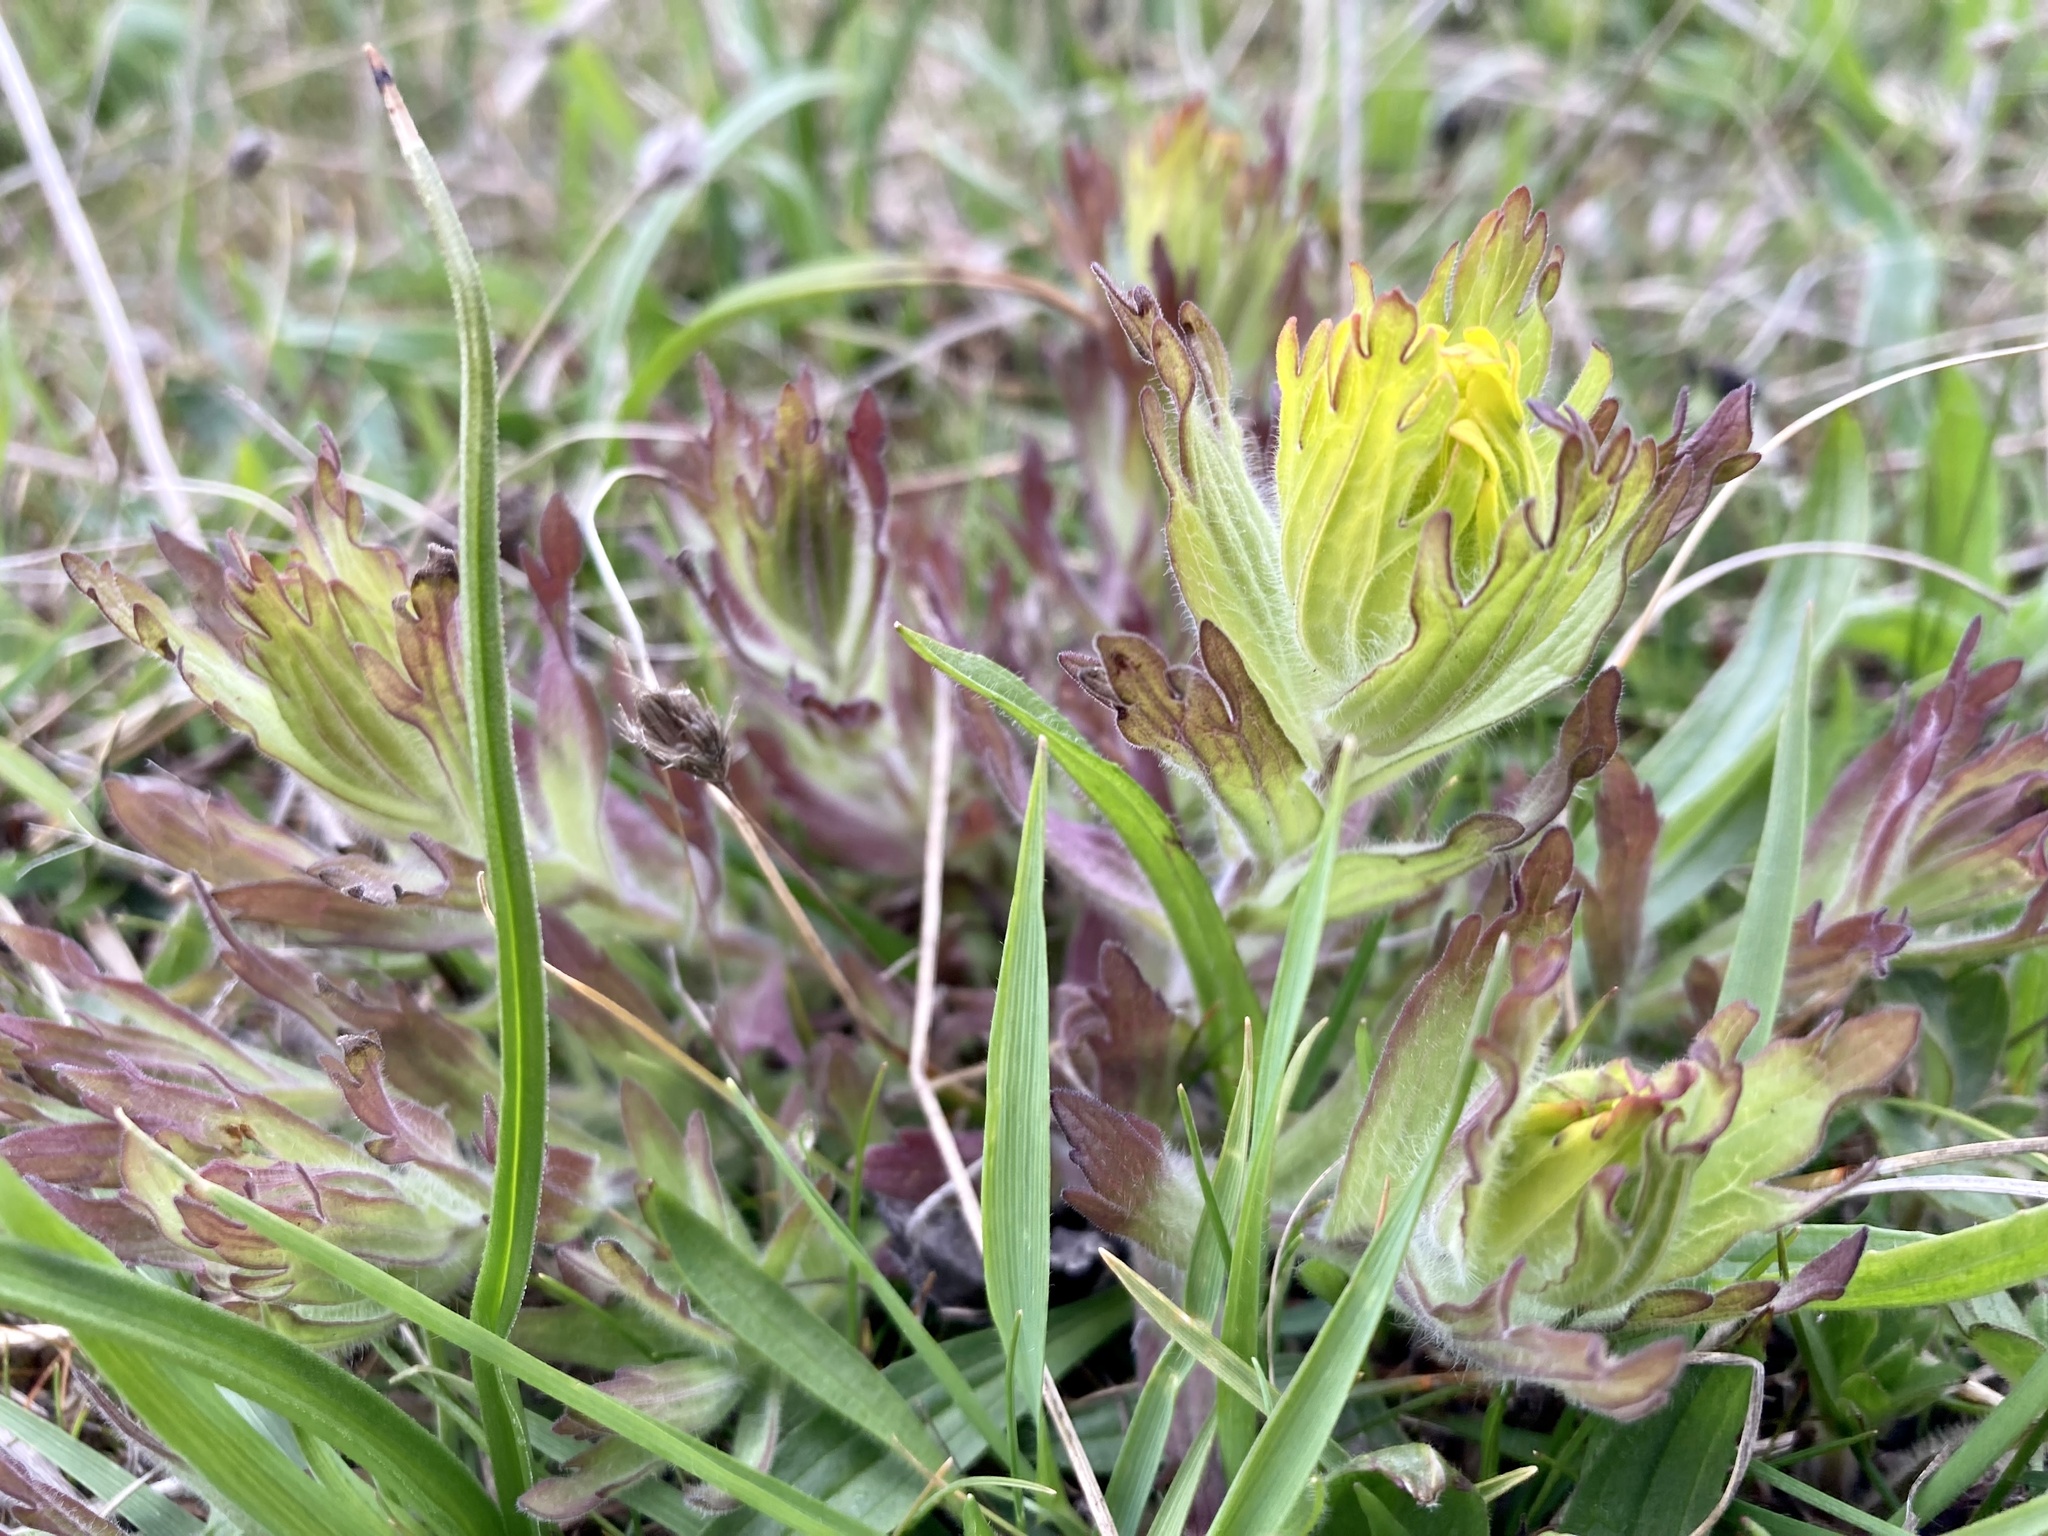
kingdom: Plantae
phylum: Tracheophyta
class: Magnoliopsida
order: Lamiales
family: Orobanchaceae
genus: Castilleja
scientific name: Castilleja levisecta
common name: Golden paintbrush
